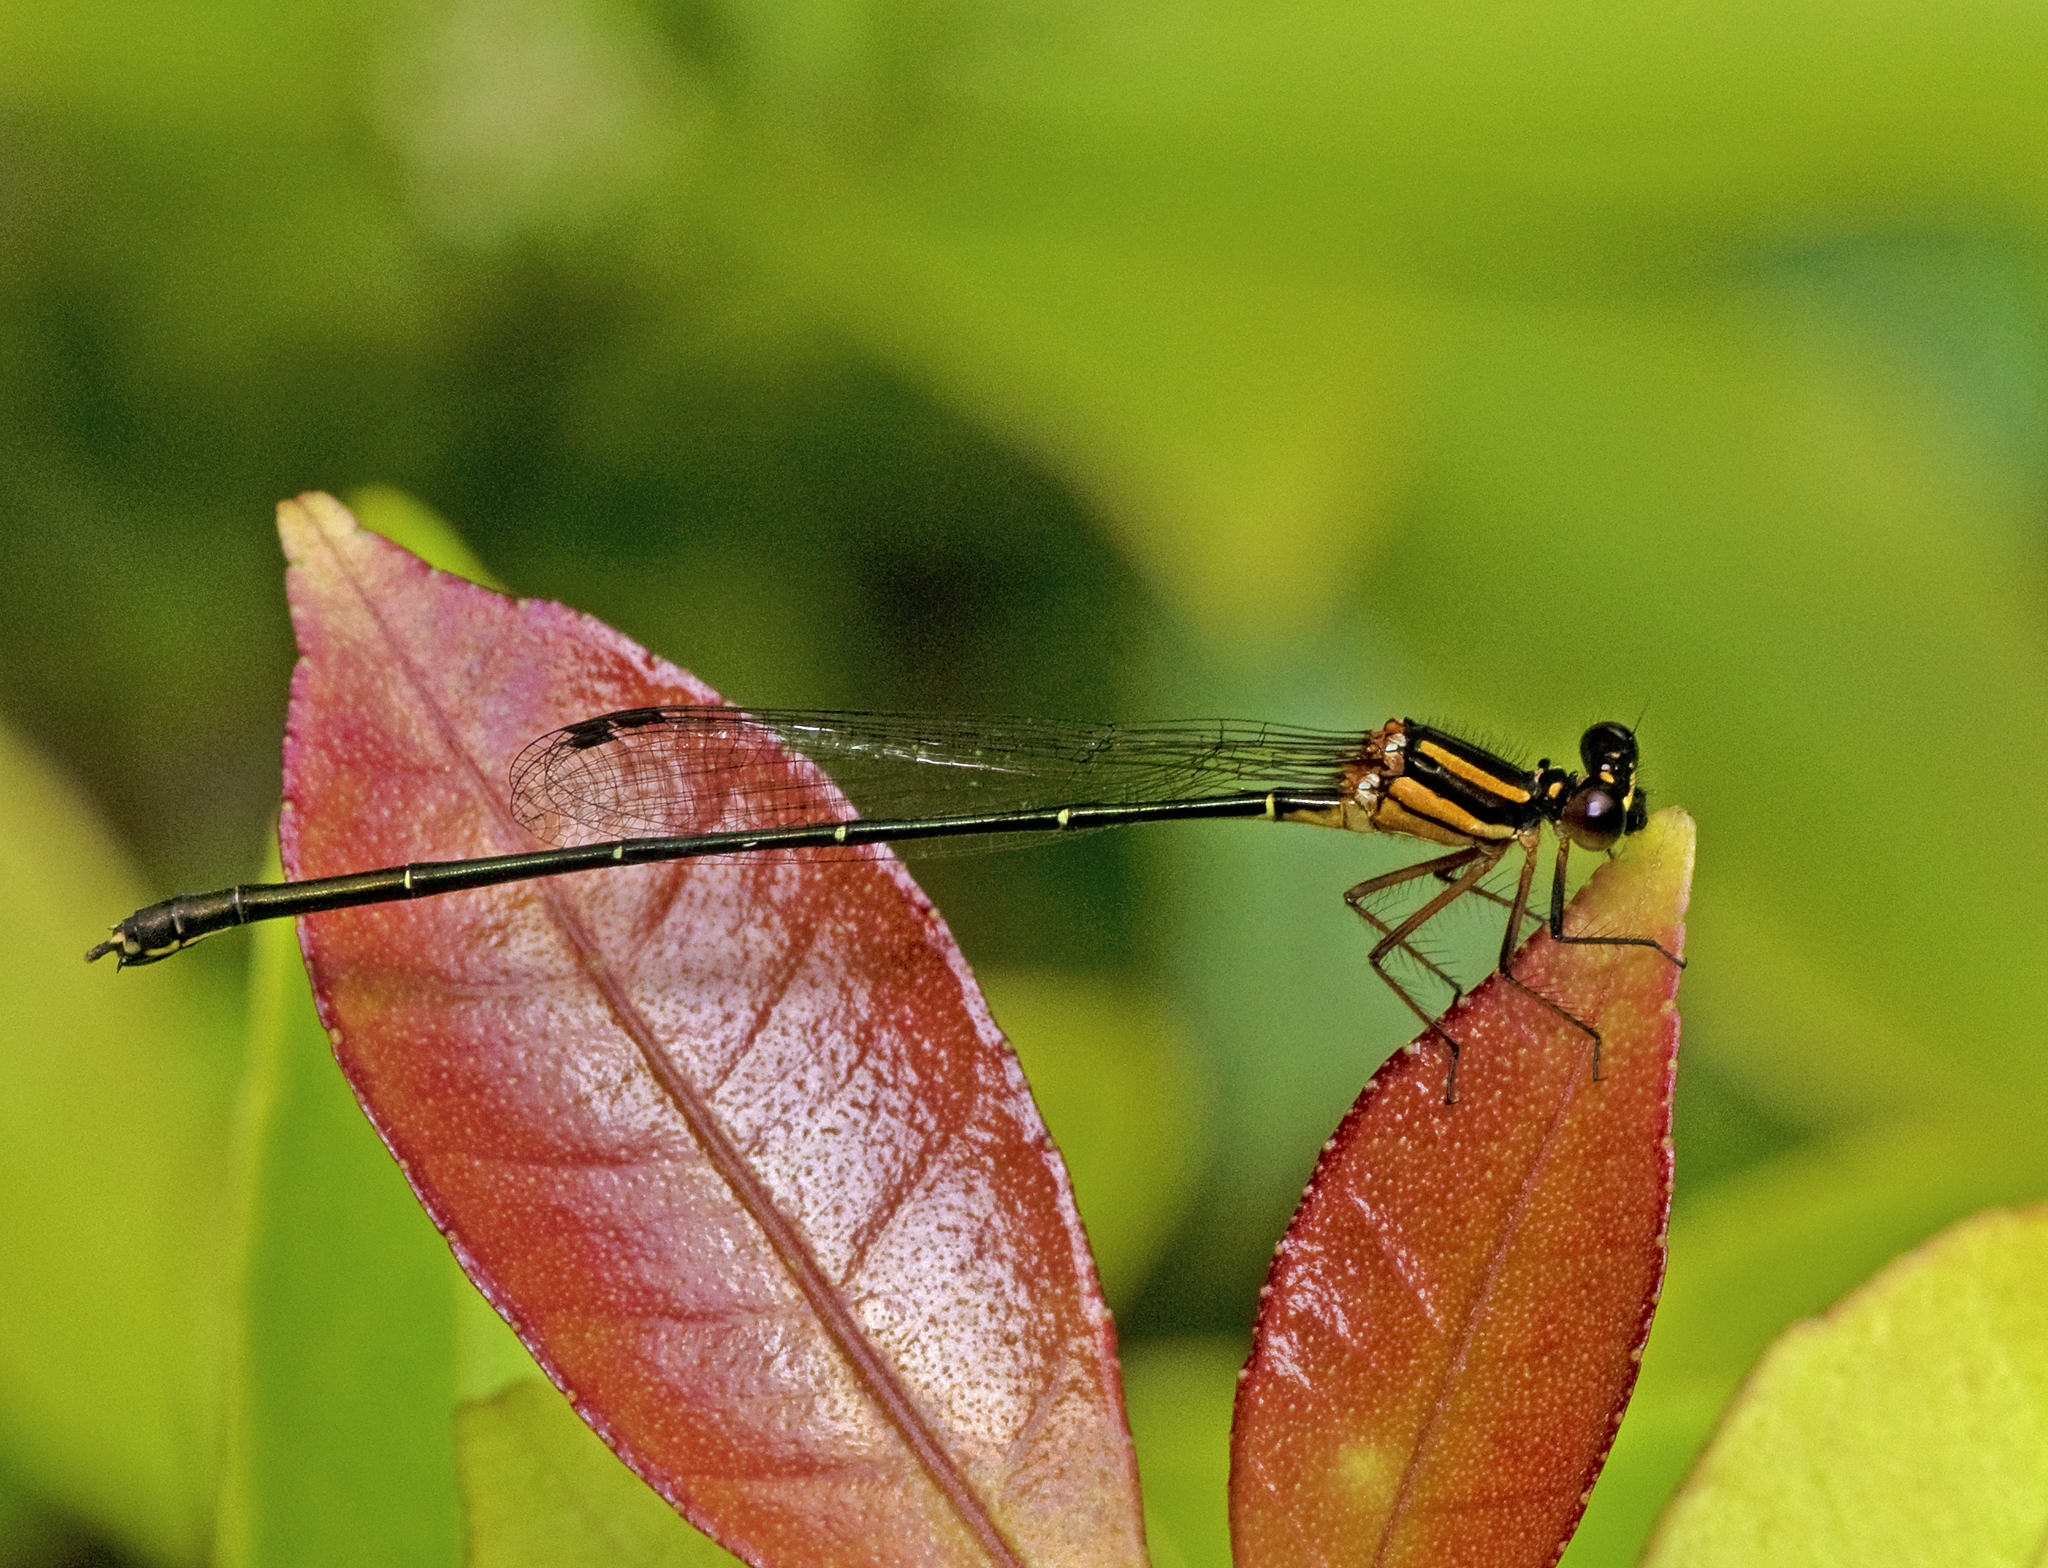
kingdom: Animalia
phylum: Arthropoda
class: Insecta
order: Odonata
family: Platycnemididae
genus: Nososticta
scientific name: Nososticta solida
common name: Orange threadtail
